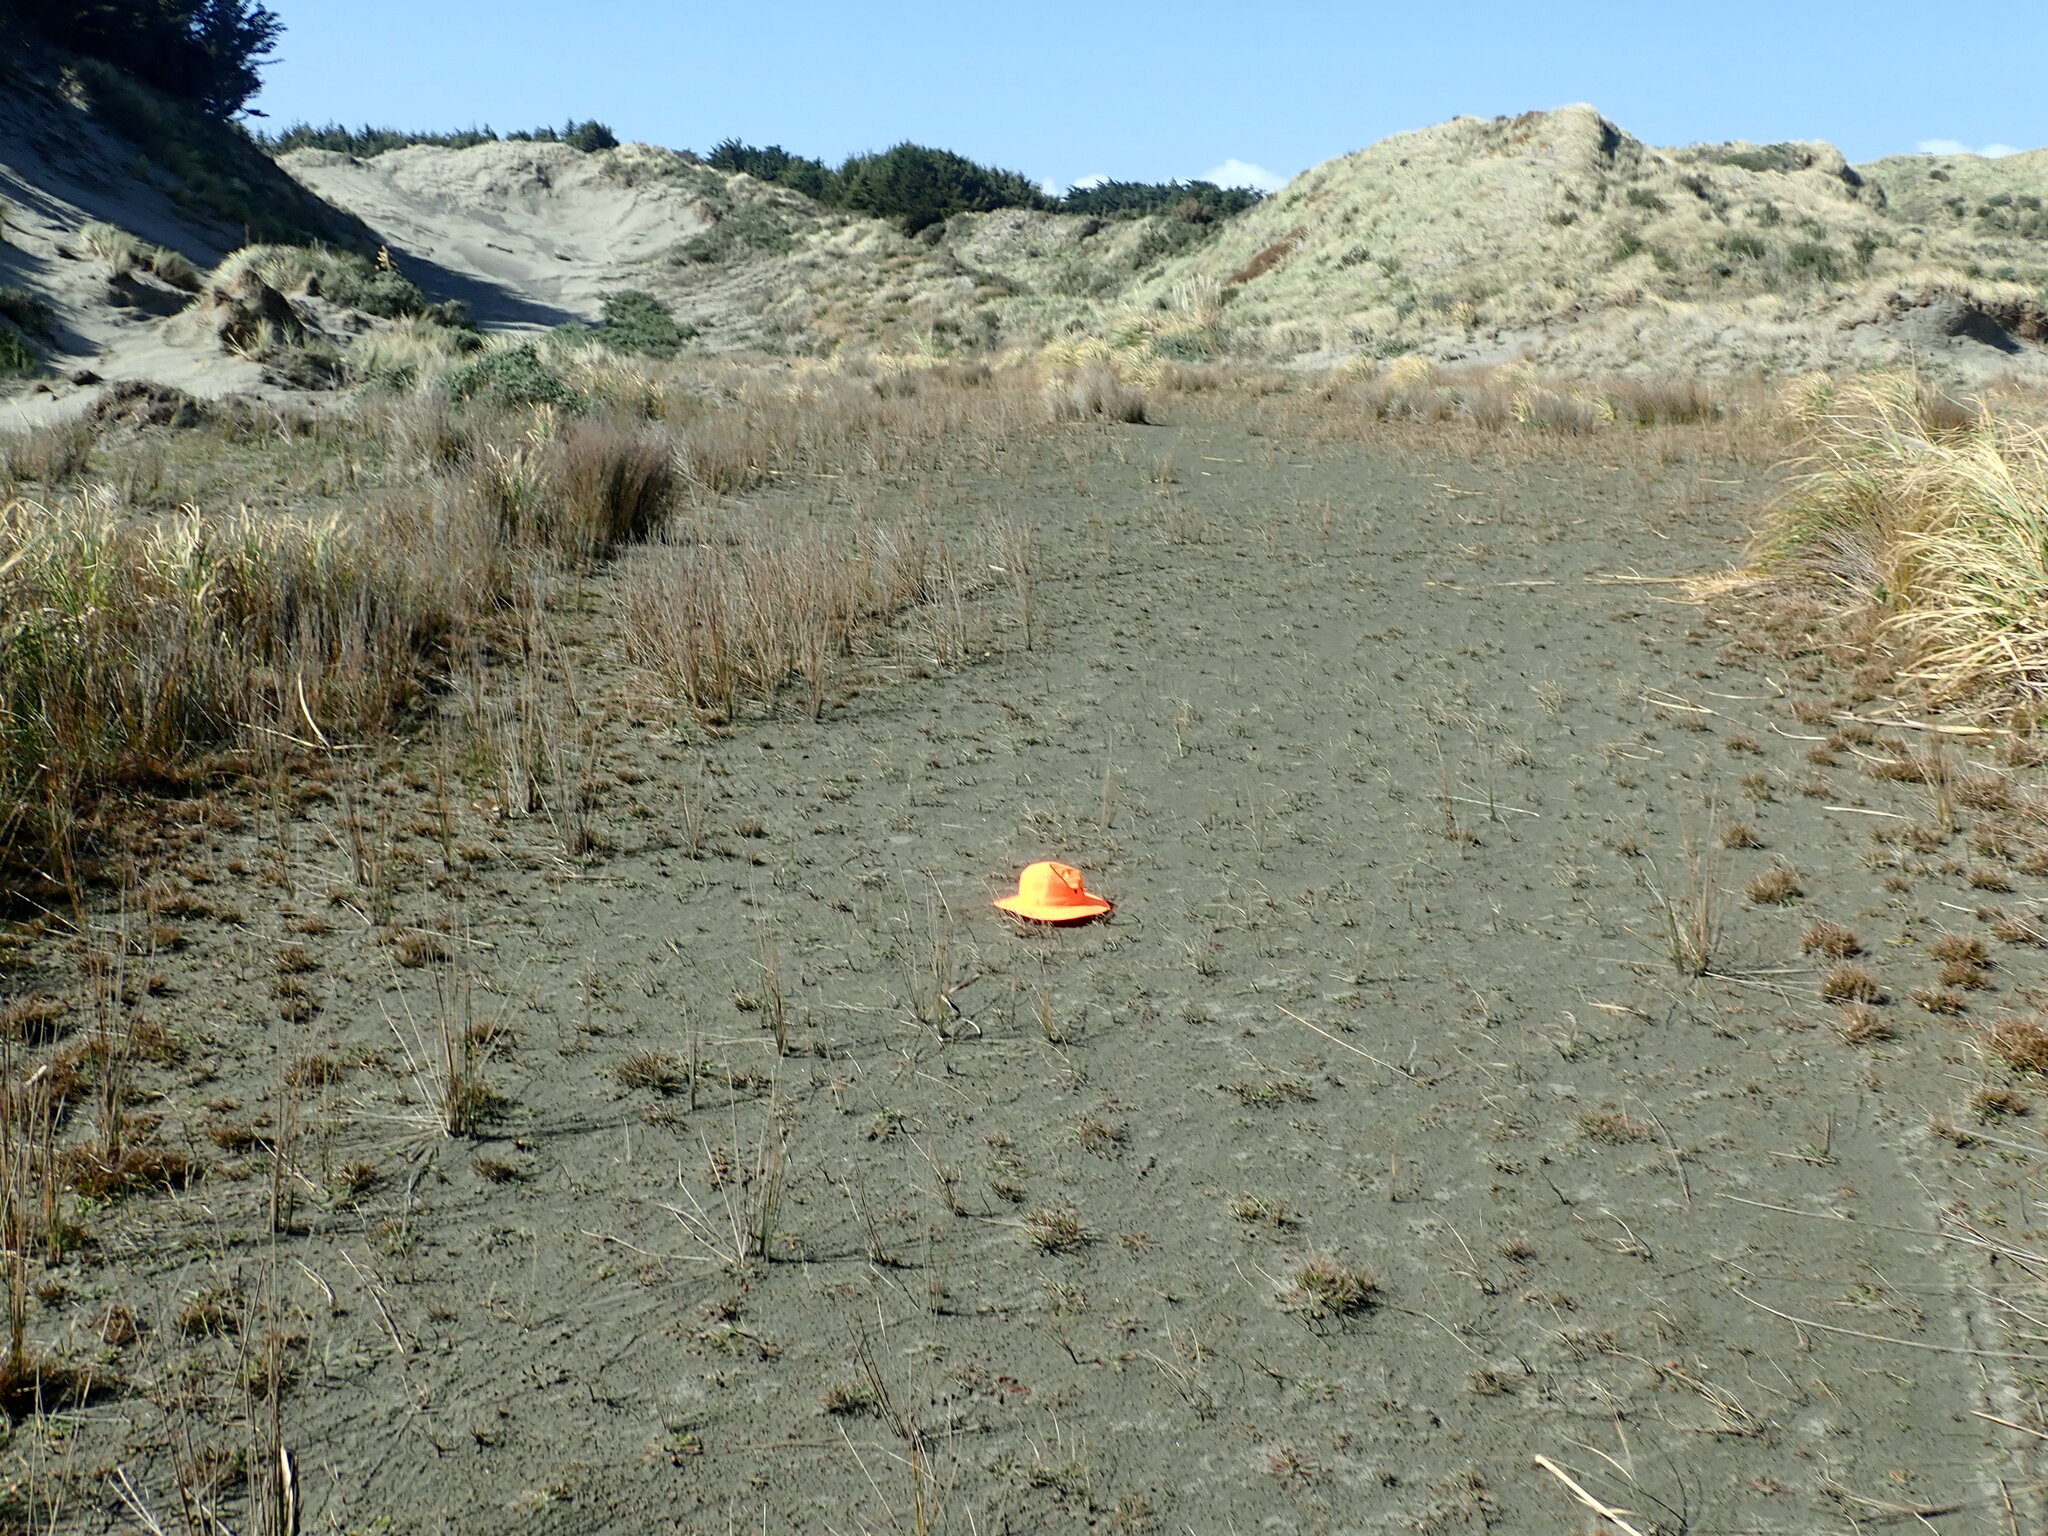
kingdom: Plantae
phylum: Tracheophyta
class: Magnoliopsida
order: Apiales
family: Apiaceae
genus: Lilaeopsis
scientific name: Lilaeopsis novae-zelandiae
